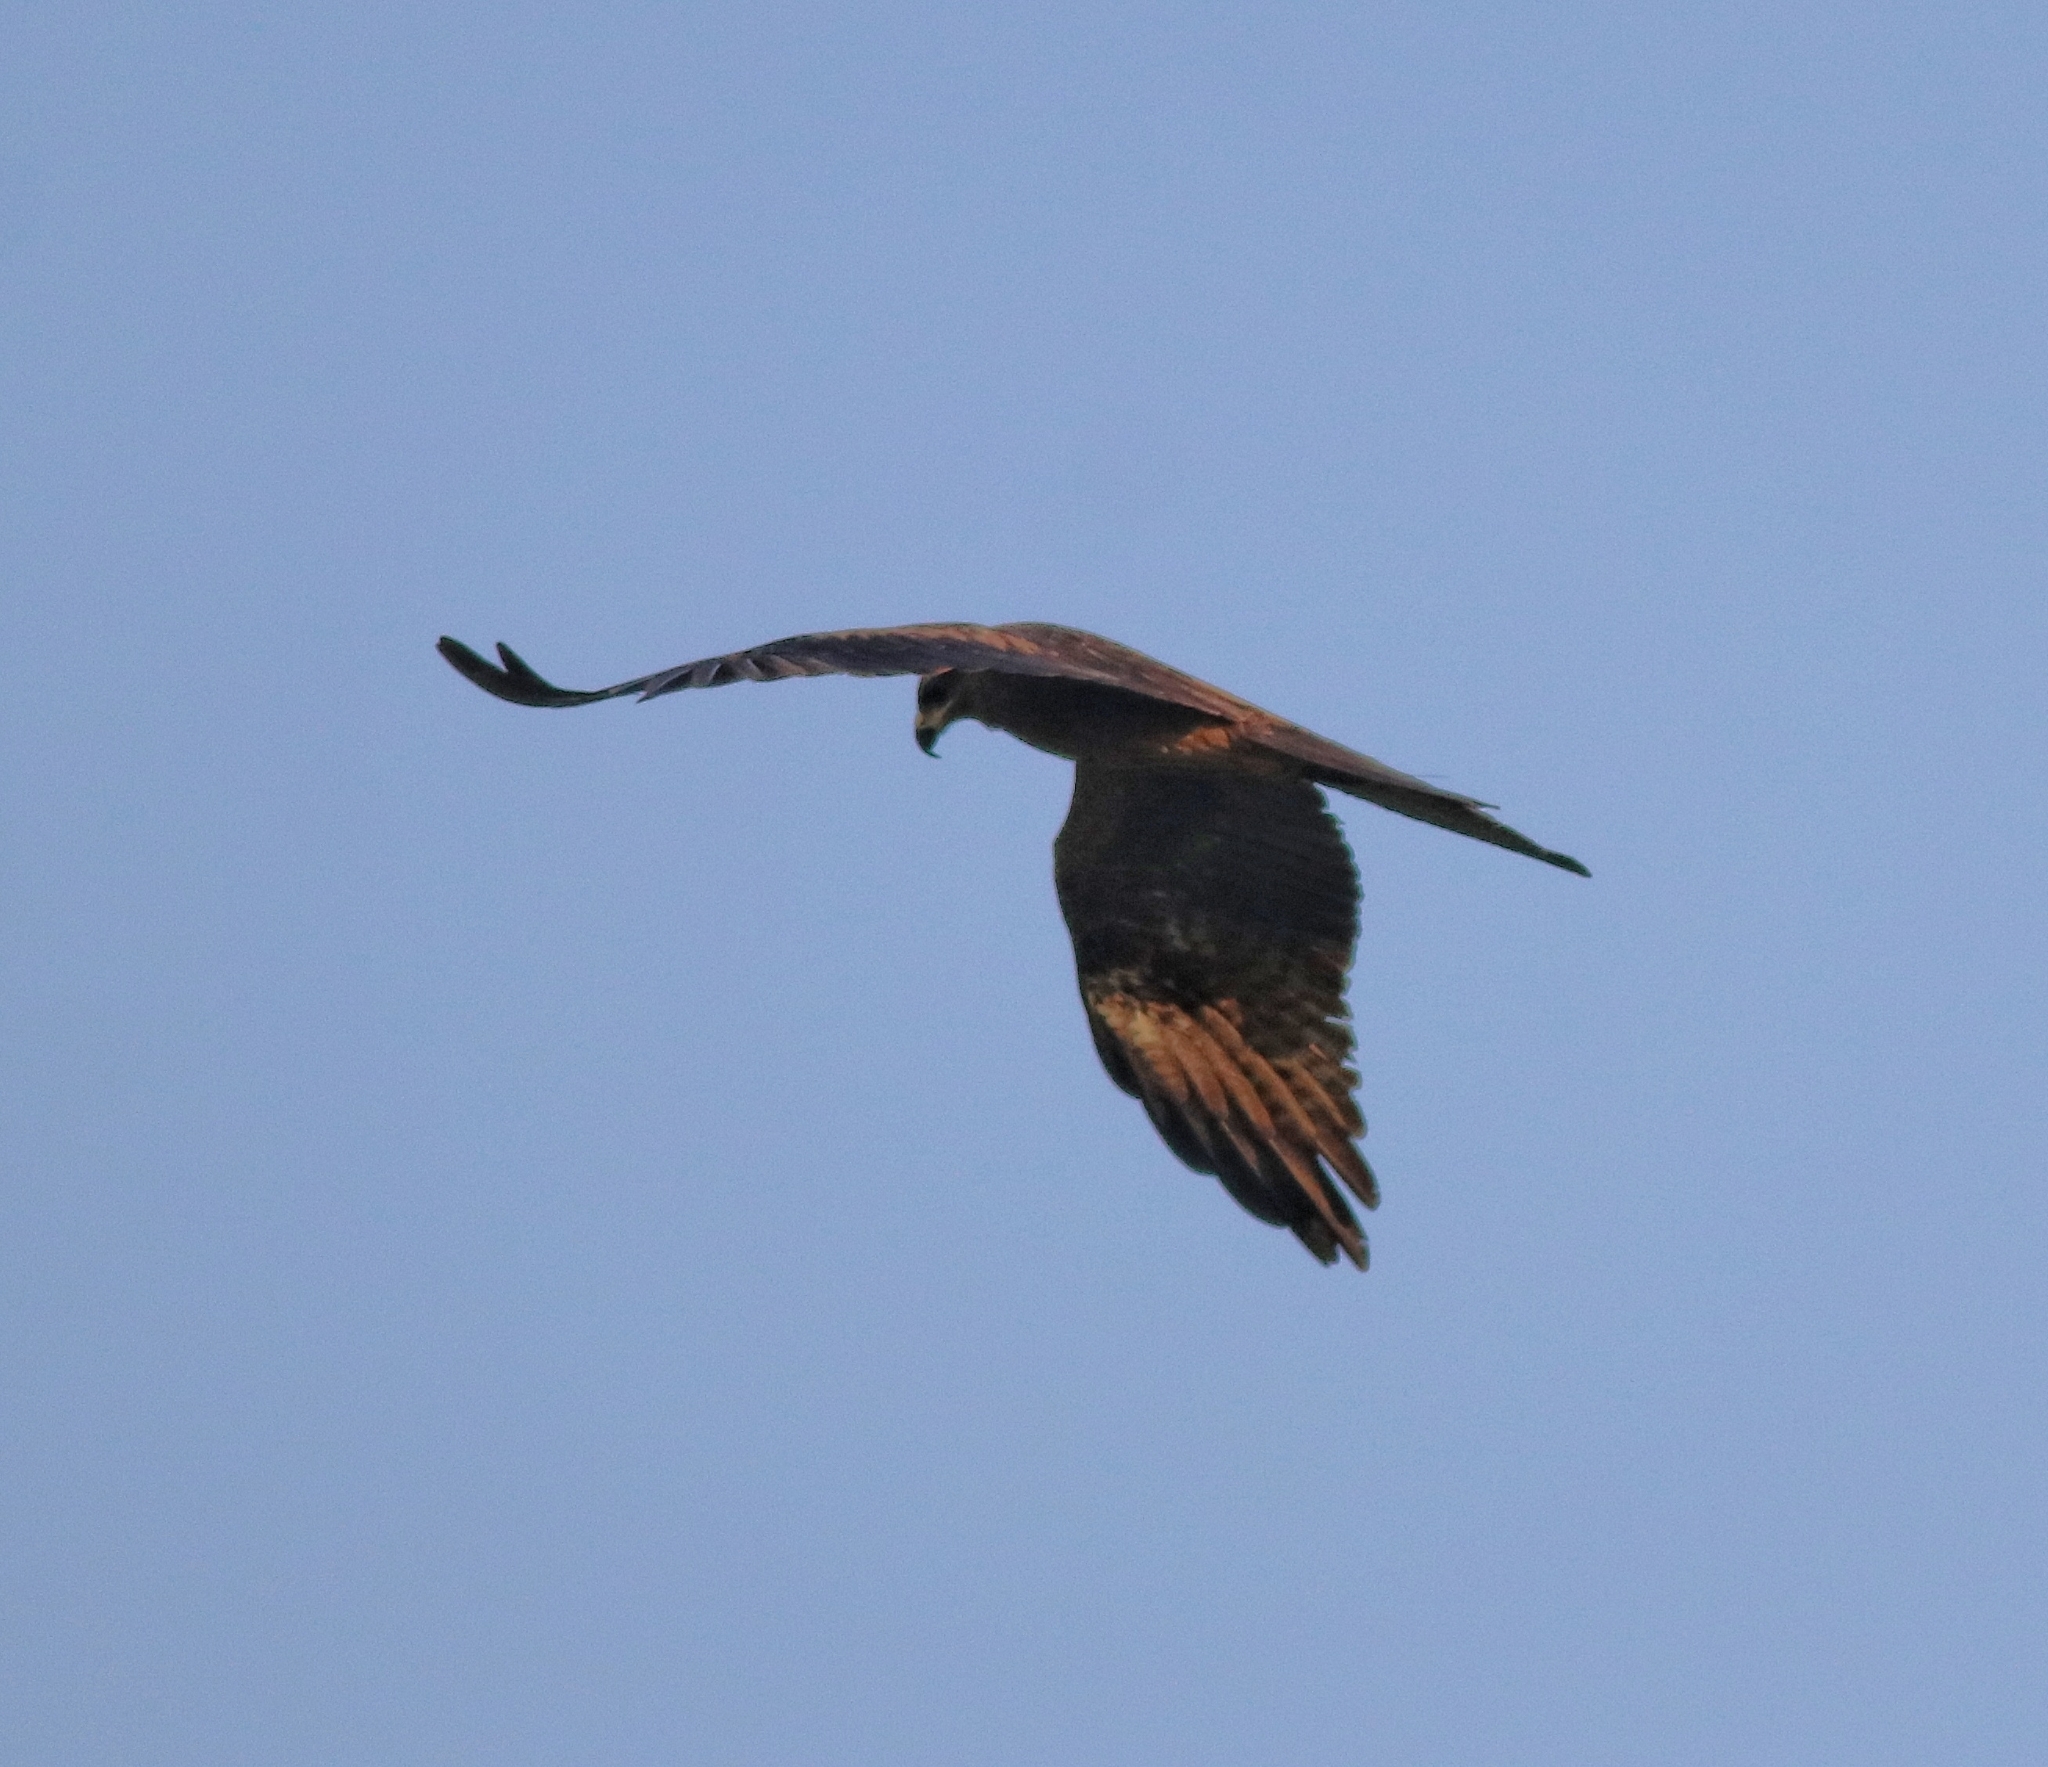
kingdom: Animalia
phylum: Chordata
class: Aves
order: Accipitriformes
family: Accipitridae
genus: Milvus
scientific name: Milvus migrans
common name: Black kite
